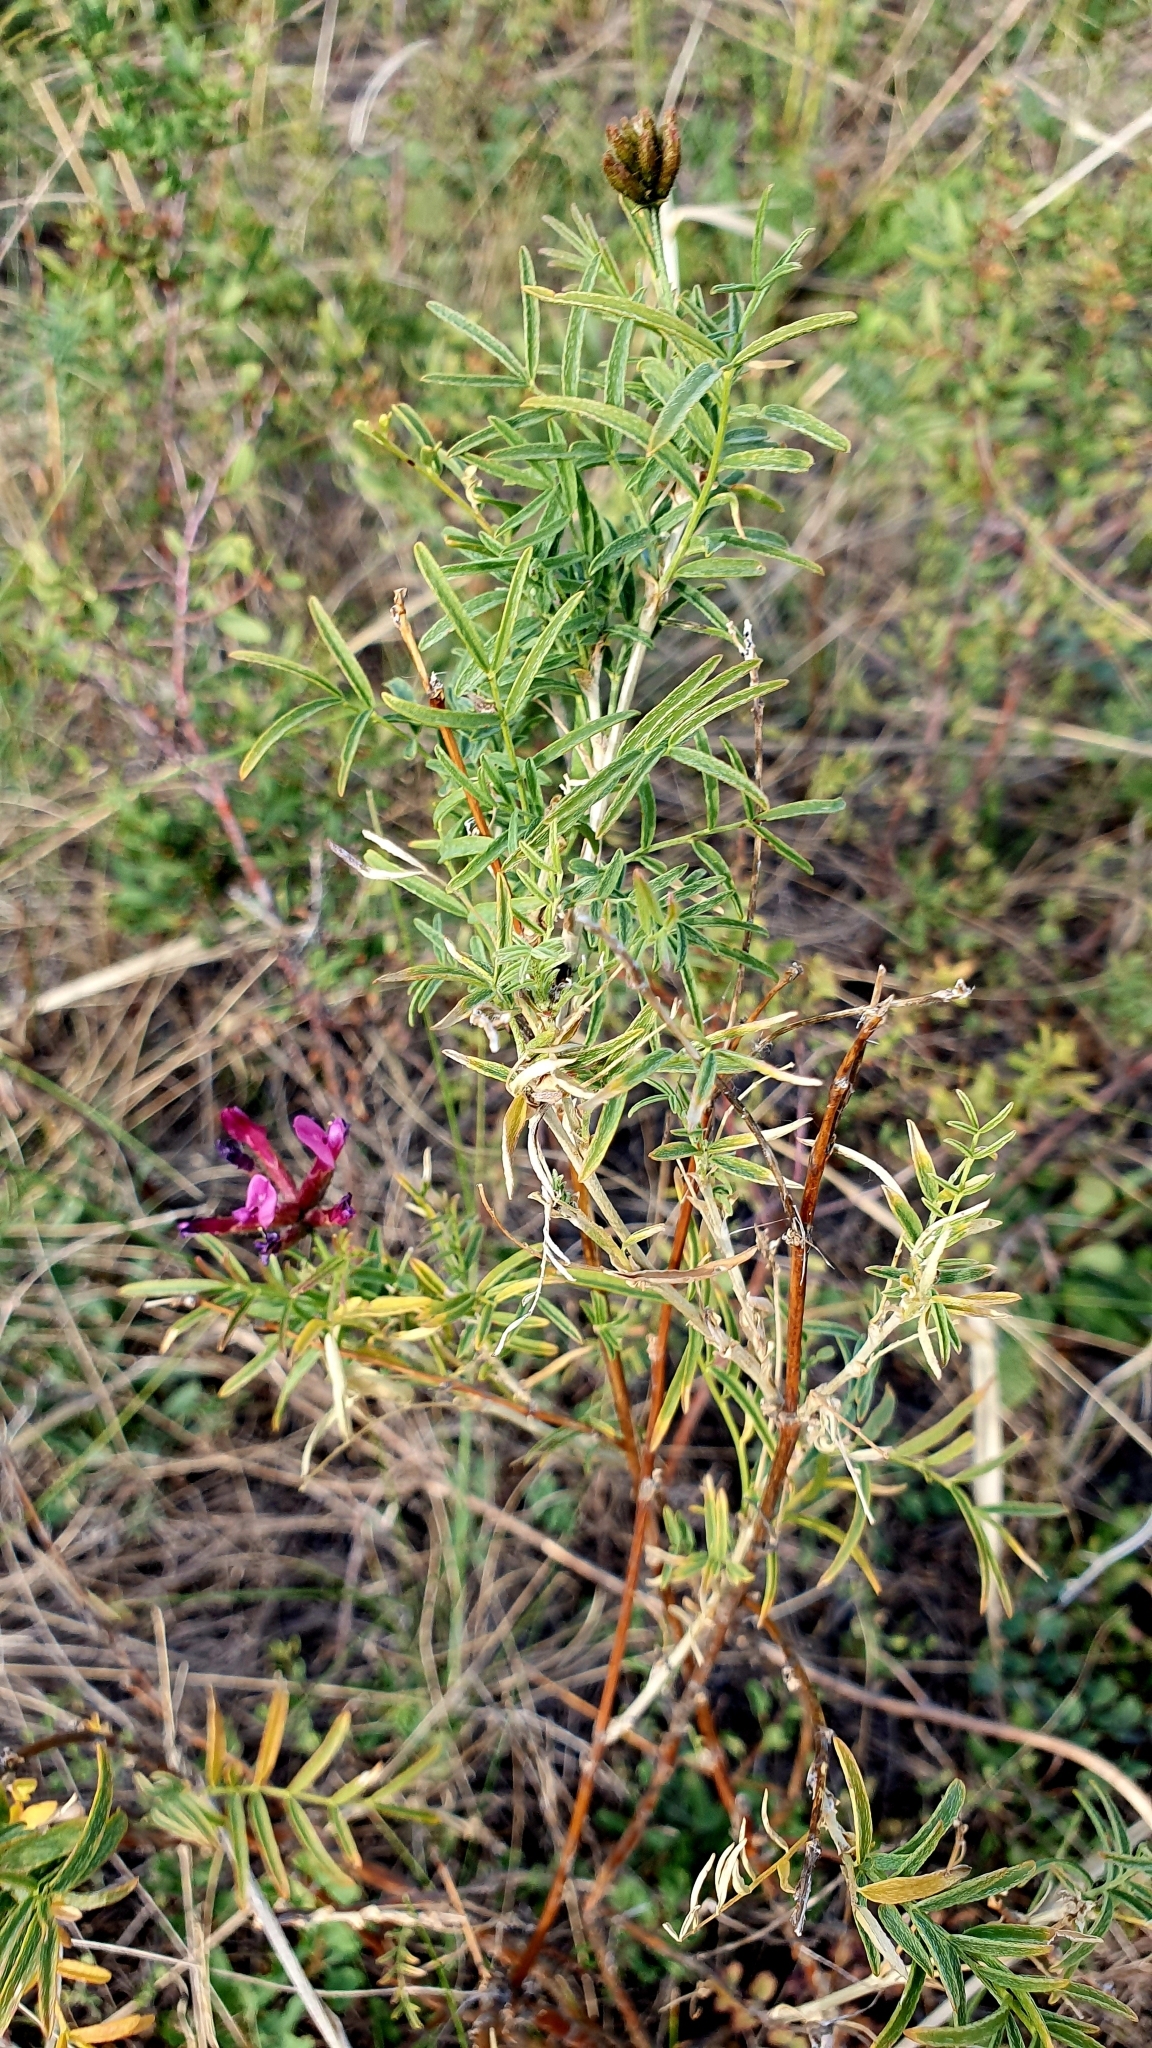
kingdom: Plantae
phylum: Tracheophyta
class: Magnoliopsida
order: Fabales
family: Fabaceae
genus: Astragalus
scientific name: Astragalus cornutus
